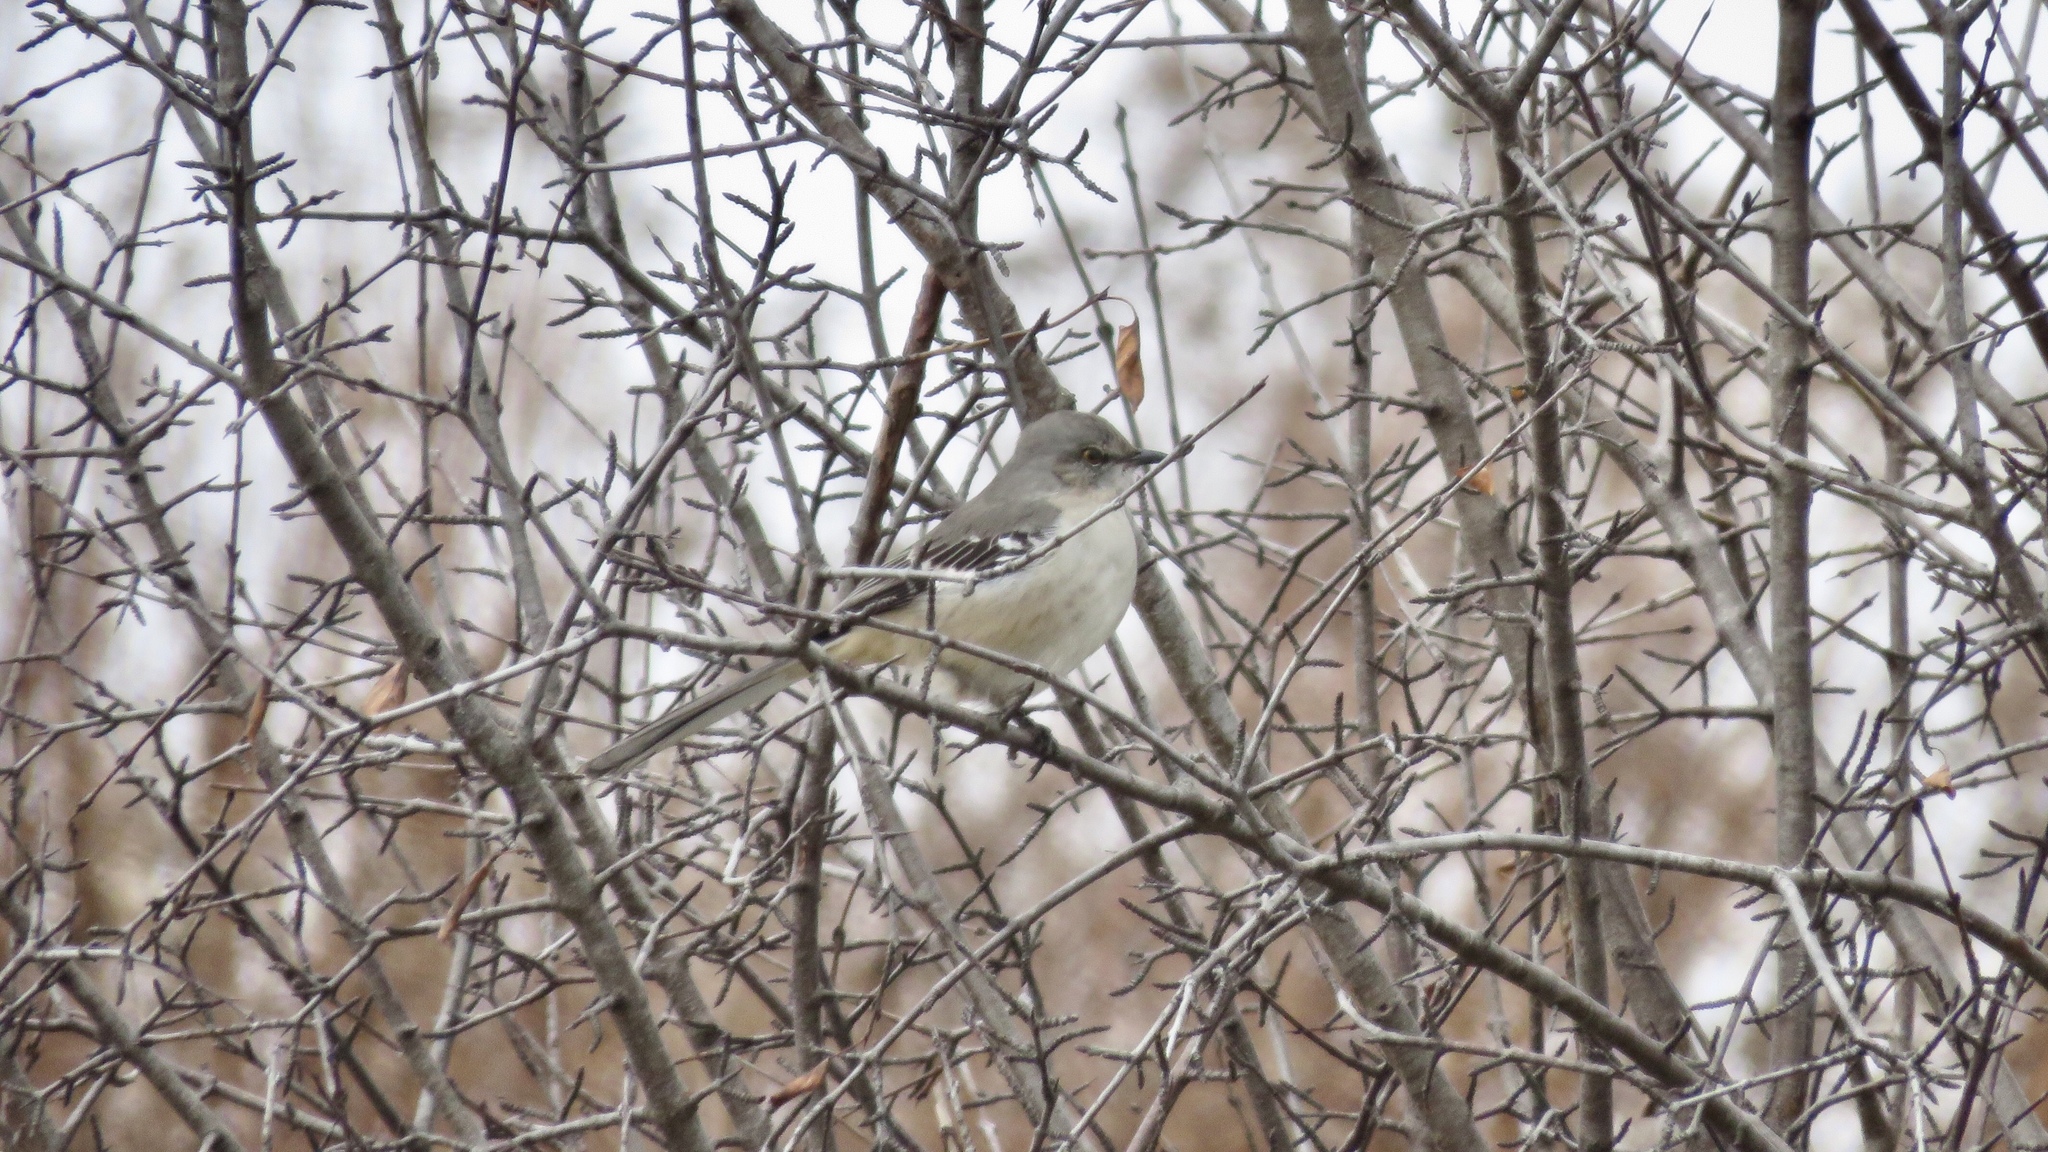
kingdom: Animalia
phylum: Chordata
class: Aves
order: Passeriformes
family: Mimidae
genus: Mimus
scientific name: Mimus polyglottos
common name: Northern mockingbird
